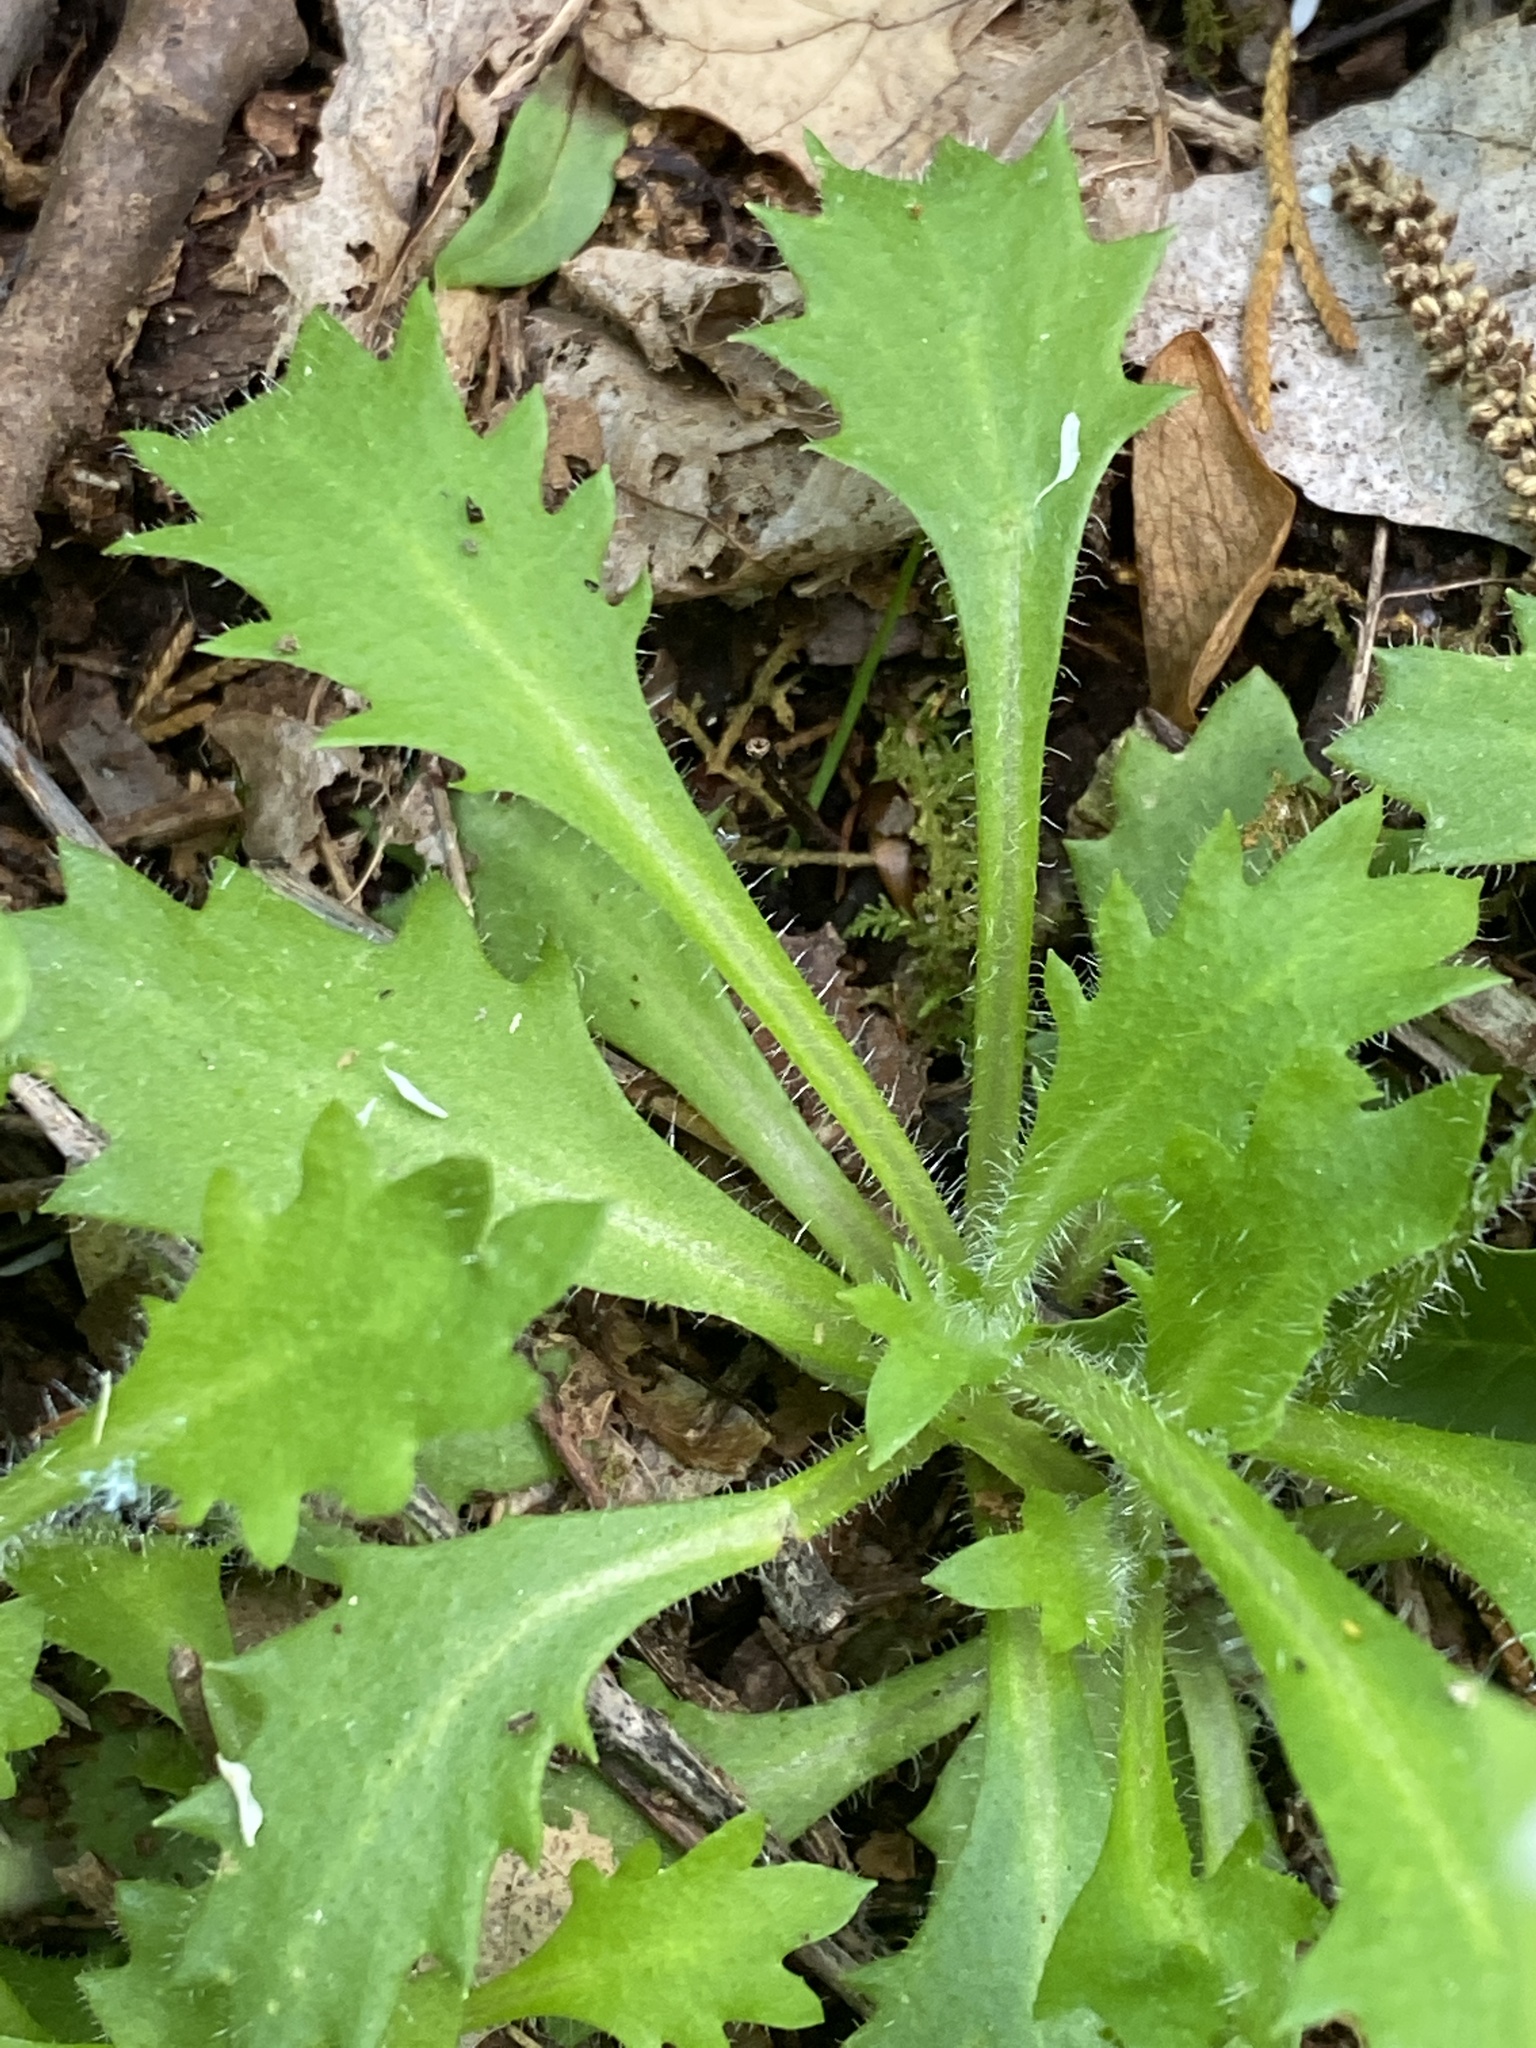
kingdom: Plantae
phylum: Tracheophyta
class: Magnoliopsida
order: Saxifragales
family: Saxifragaceae
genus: Micranthes
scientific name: Micranthes petiolaris
